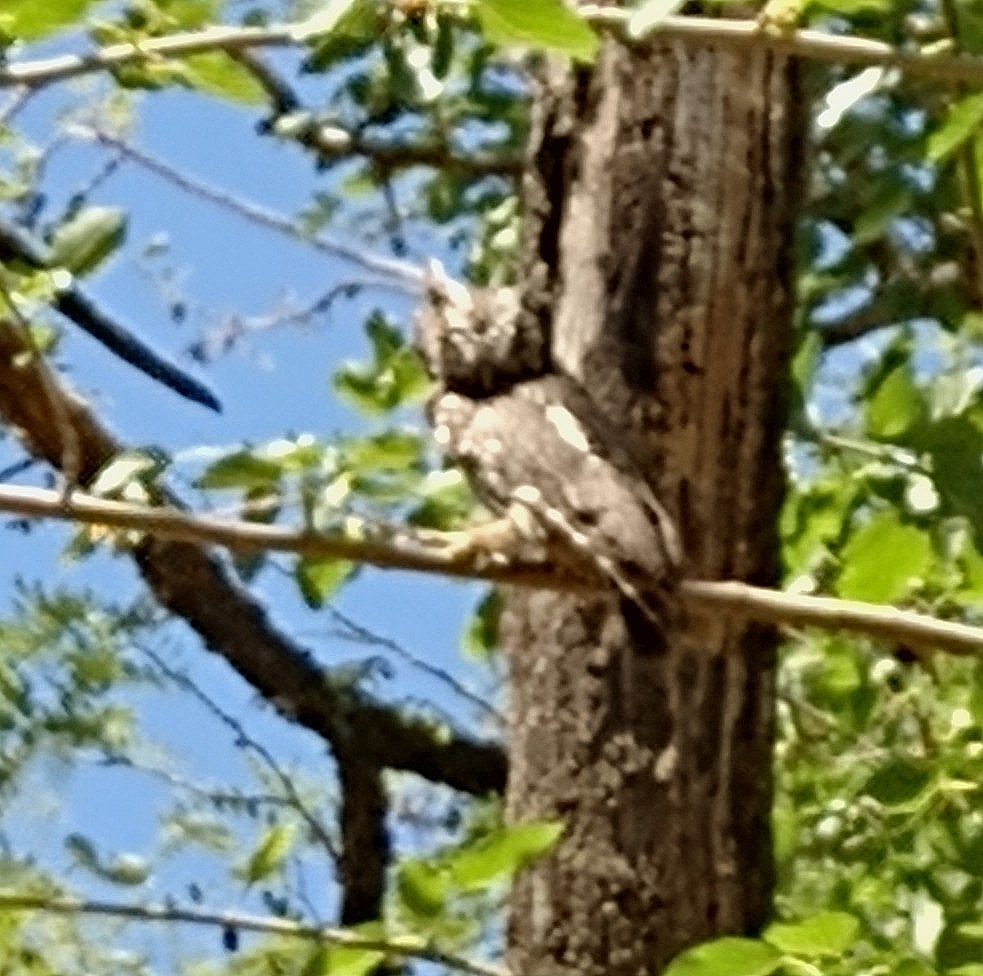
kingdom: Animalia
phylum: Chordata
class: Aves
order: Strigiformes
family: Strigidae
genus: Megascops
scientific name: Megascops choliba
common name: Tropical screech-owl
